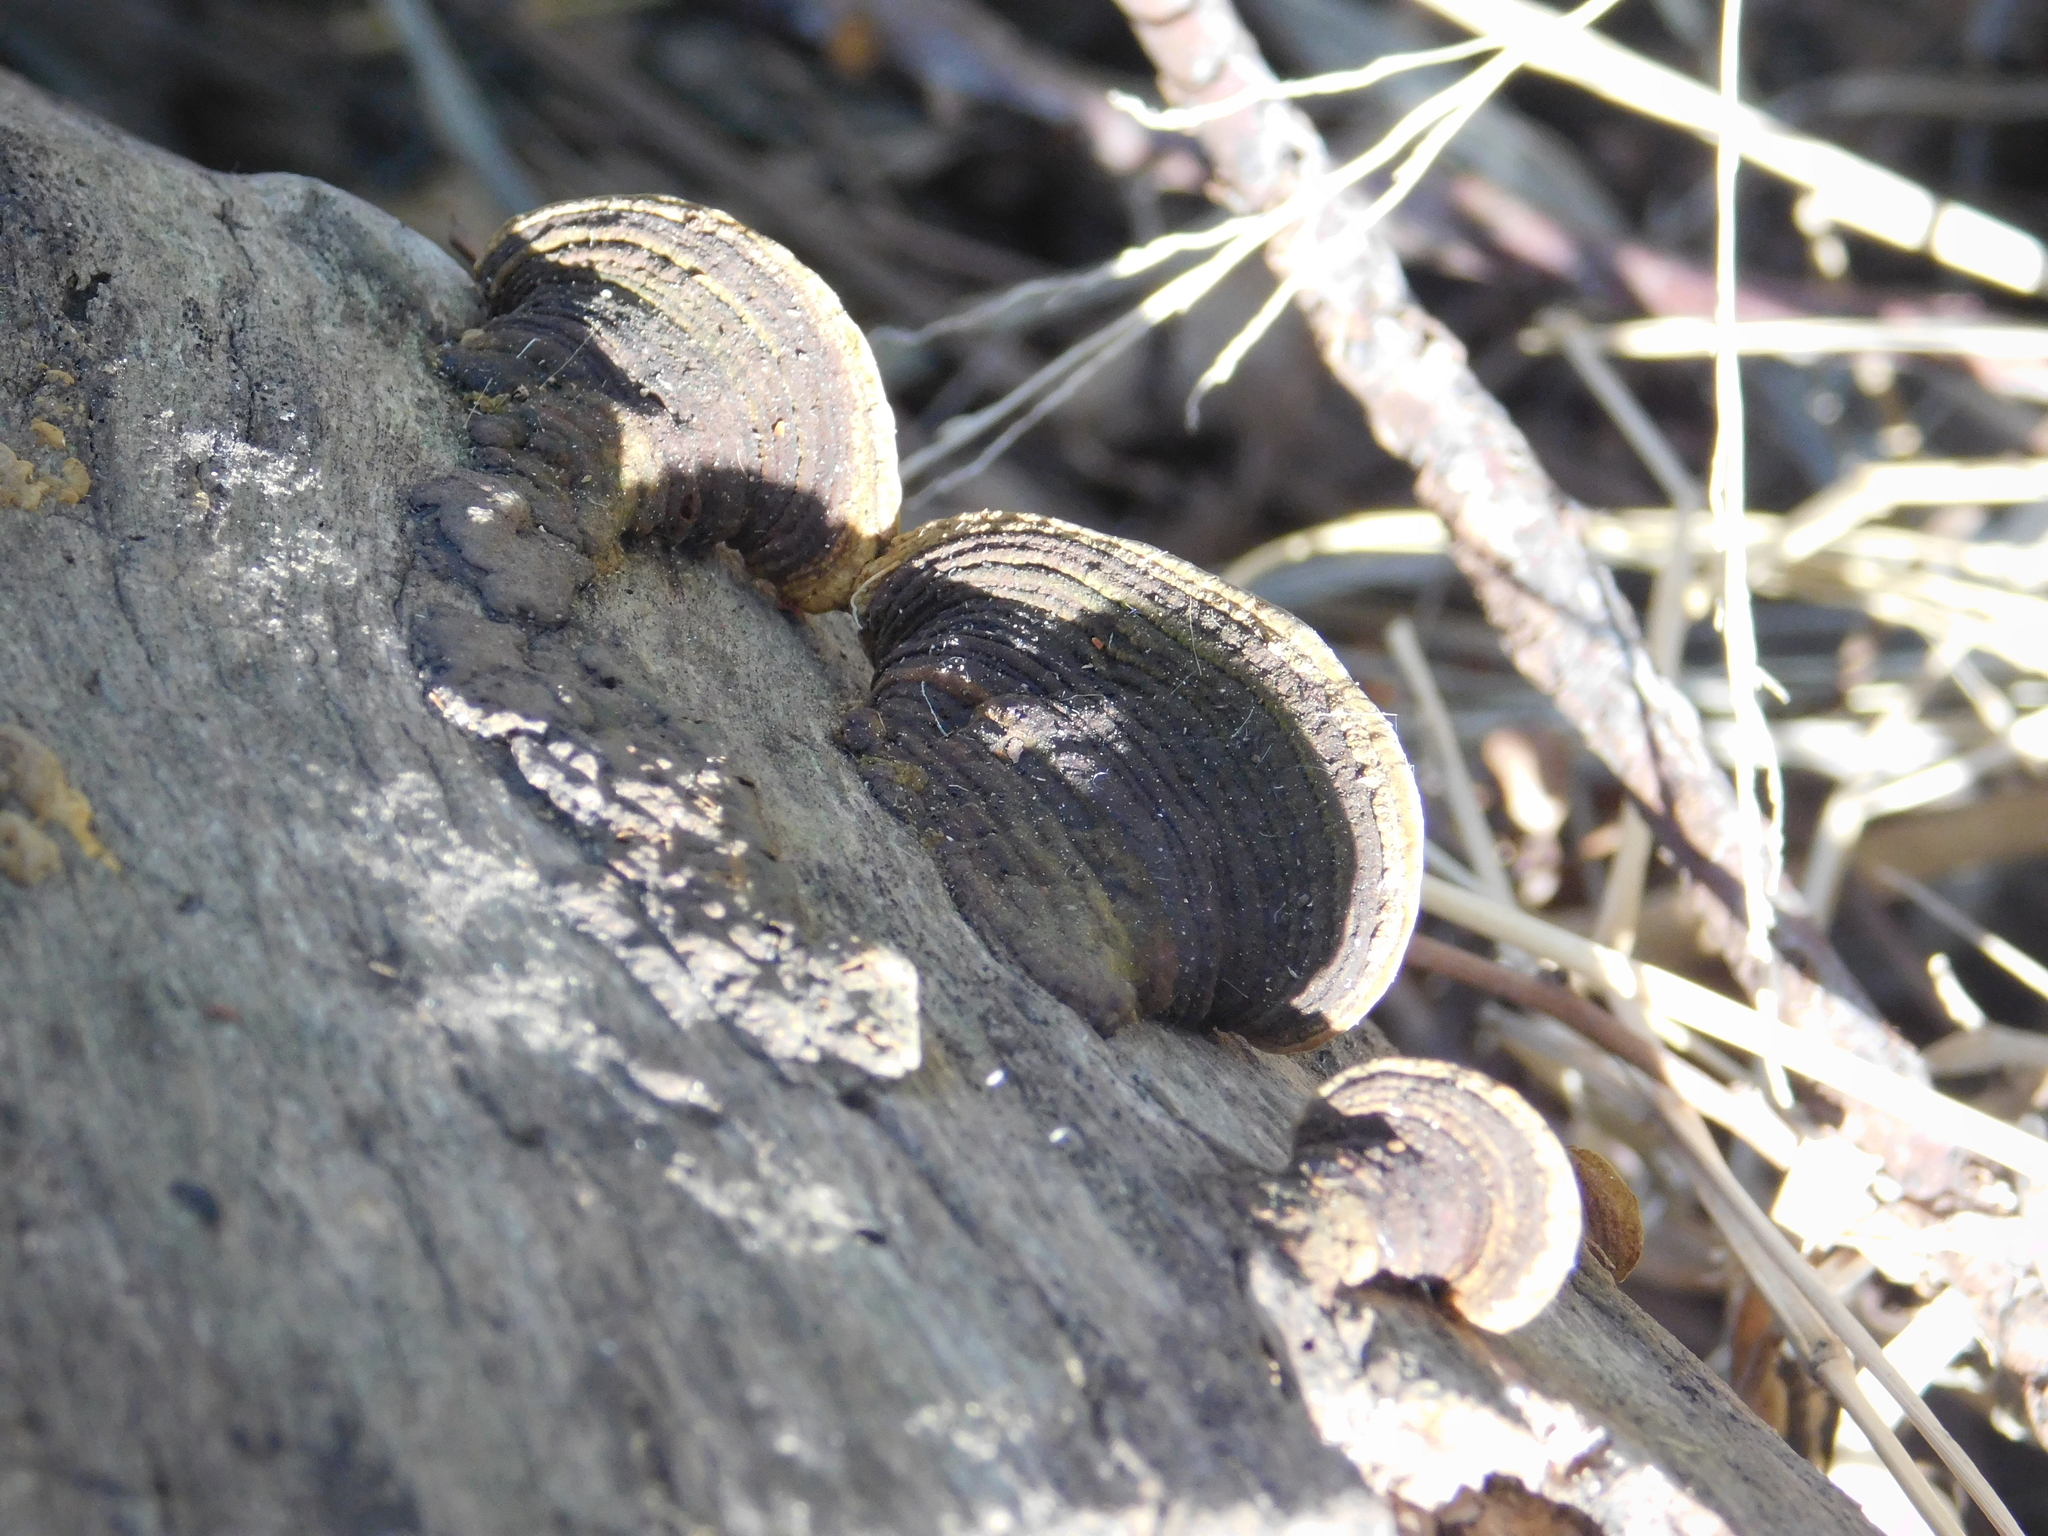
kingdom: Fungi
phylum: Basidiomycota
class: Agaricomycetes
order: Polyporales
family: Cerrenaceae
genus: Cerrena
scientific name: Cerrena hydnoides
